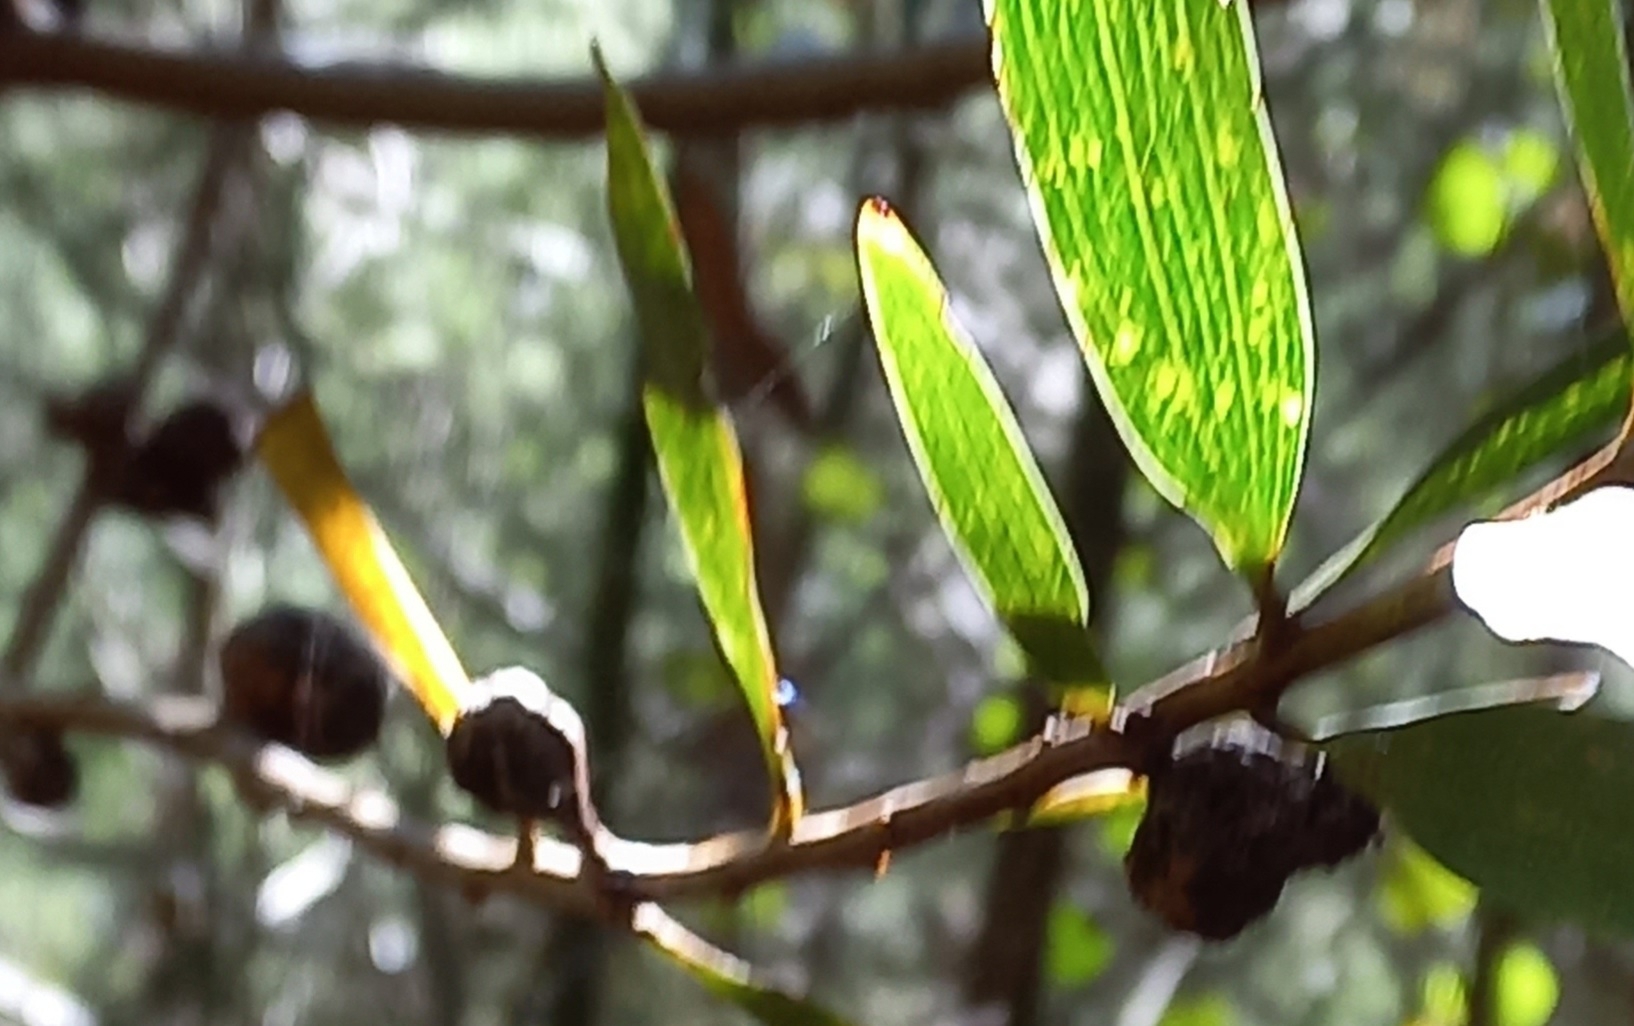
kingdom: Plantae
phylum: Tracheophyta
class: Magnoliopsida
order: Fabales
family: Fabaceae
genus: Acacia
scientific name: Acacia longifolia
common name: Sydney golden wattle
